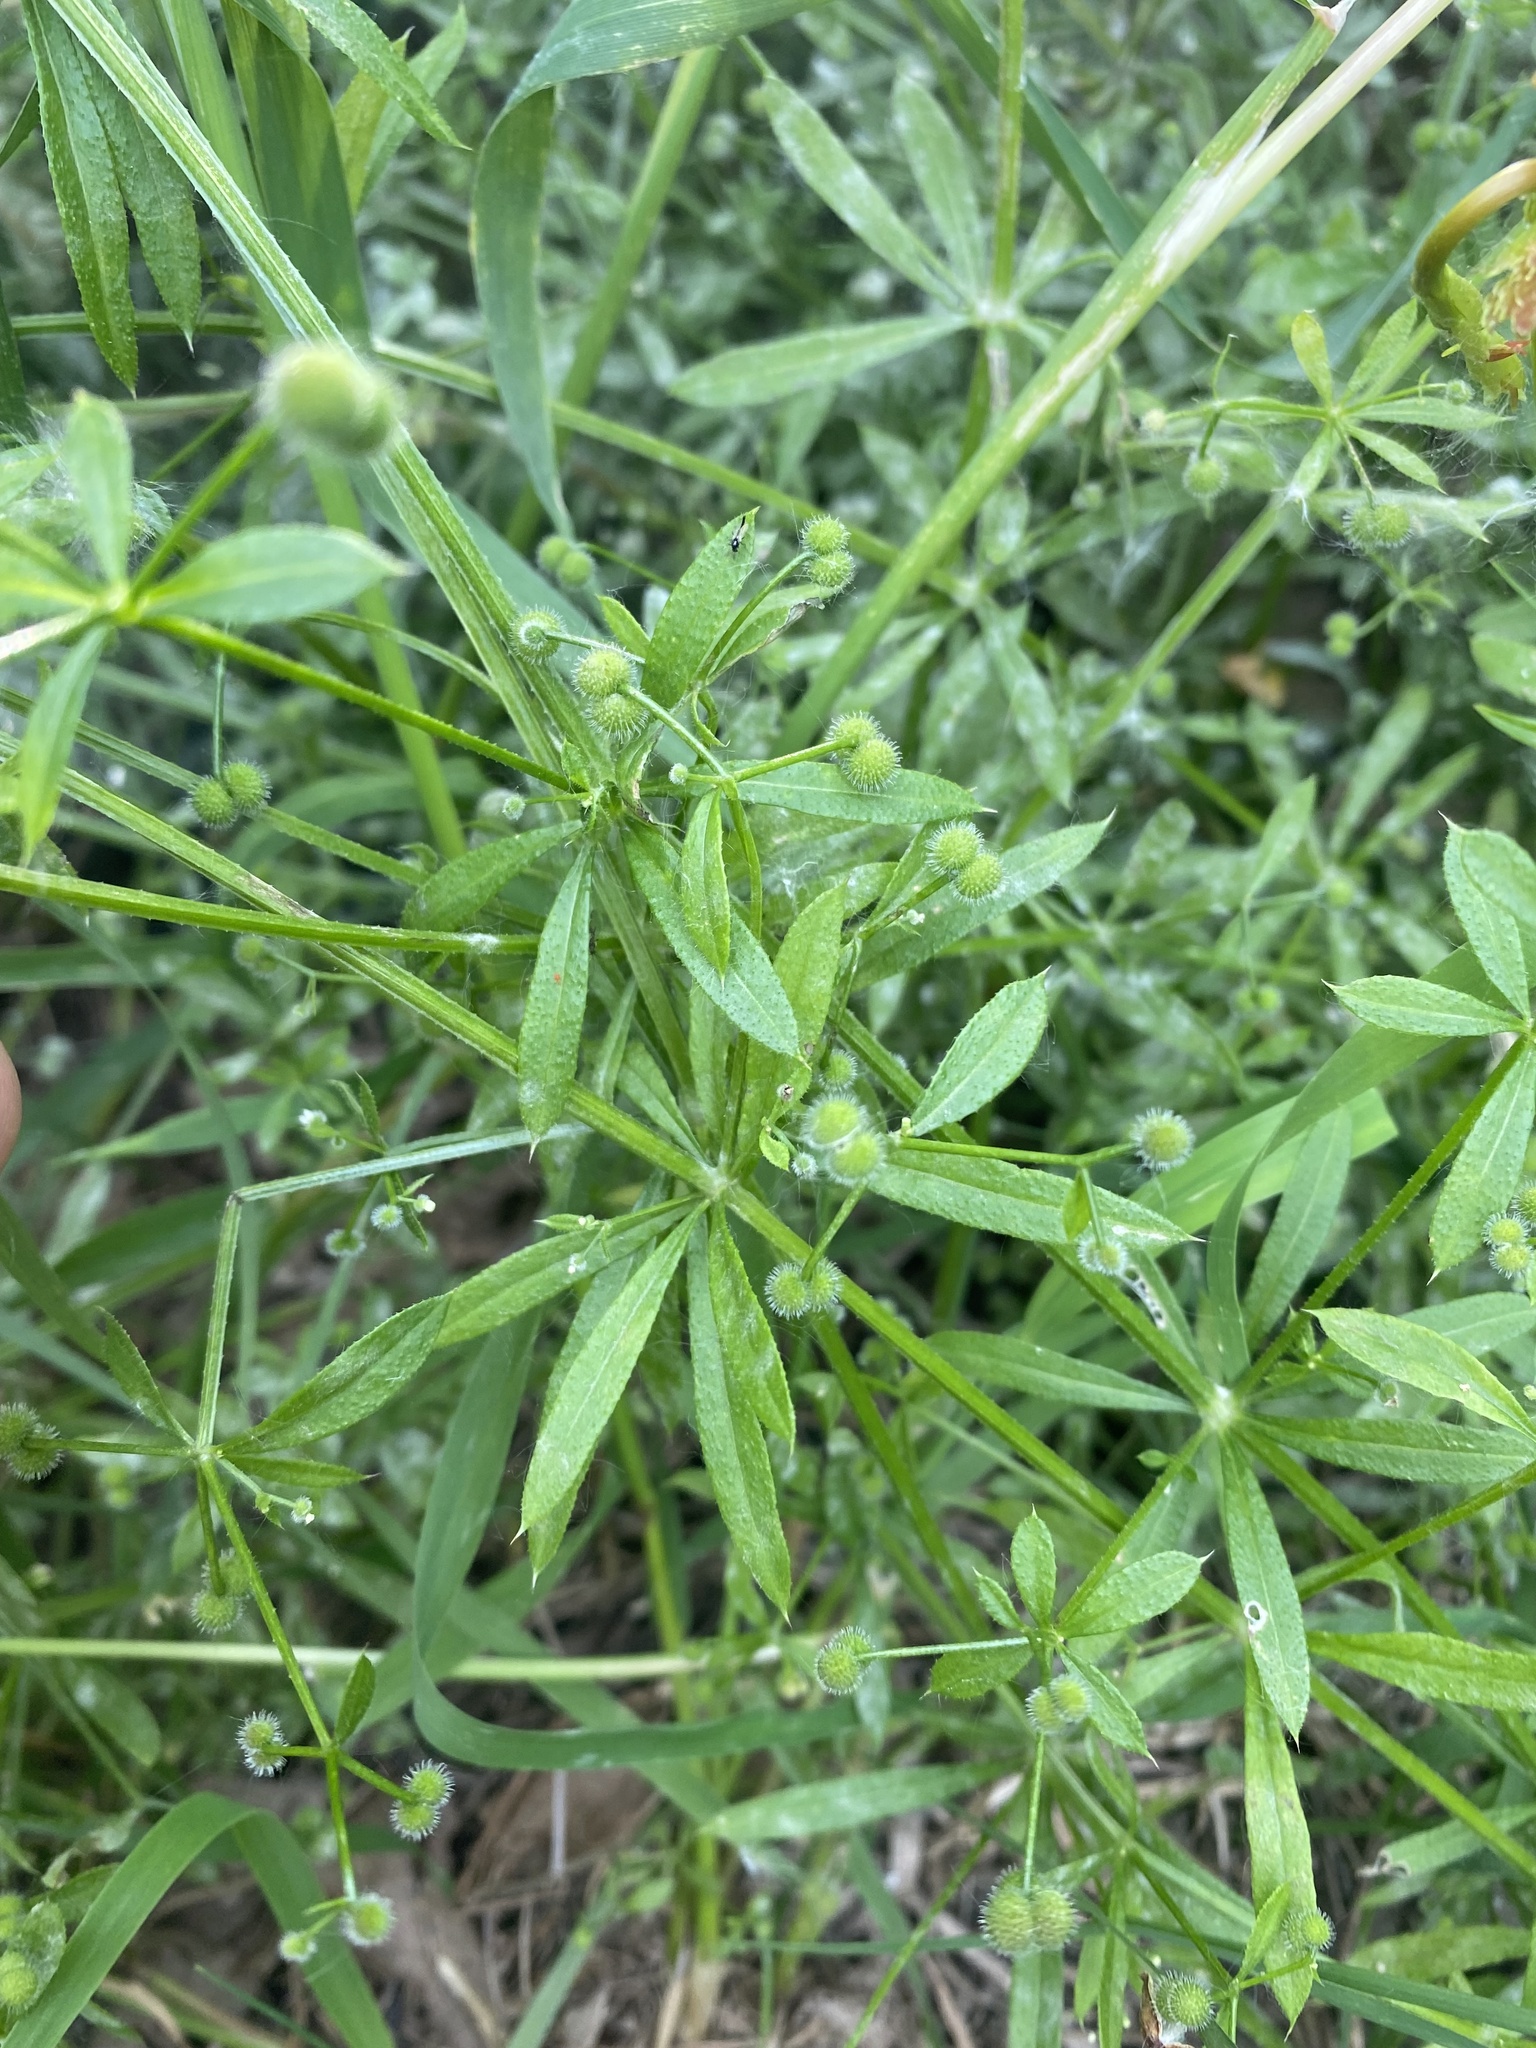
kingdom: Plantae
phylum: Tracheophyta
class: Magnoliopsida
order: Gentianales
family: Rubiaceae
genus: Galium
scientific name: Galium aparine
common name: Cleavers
